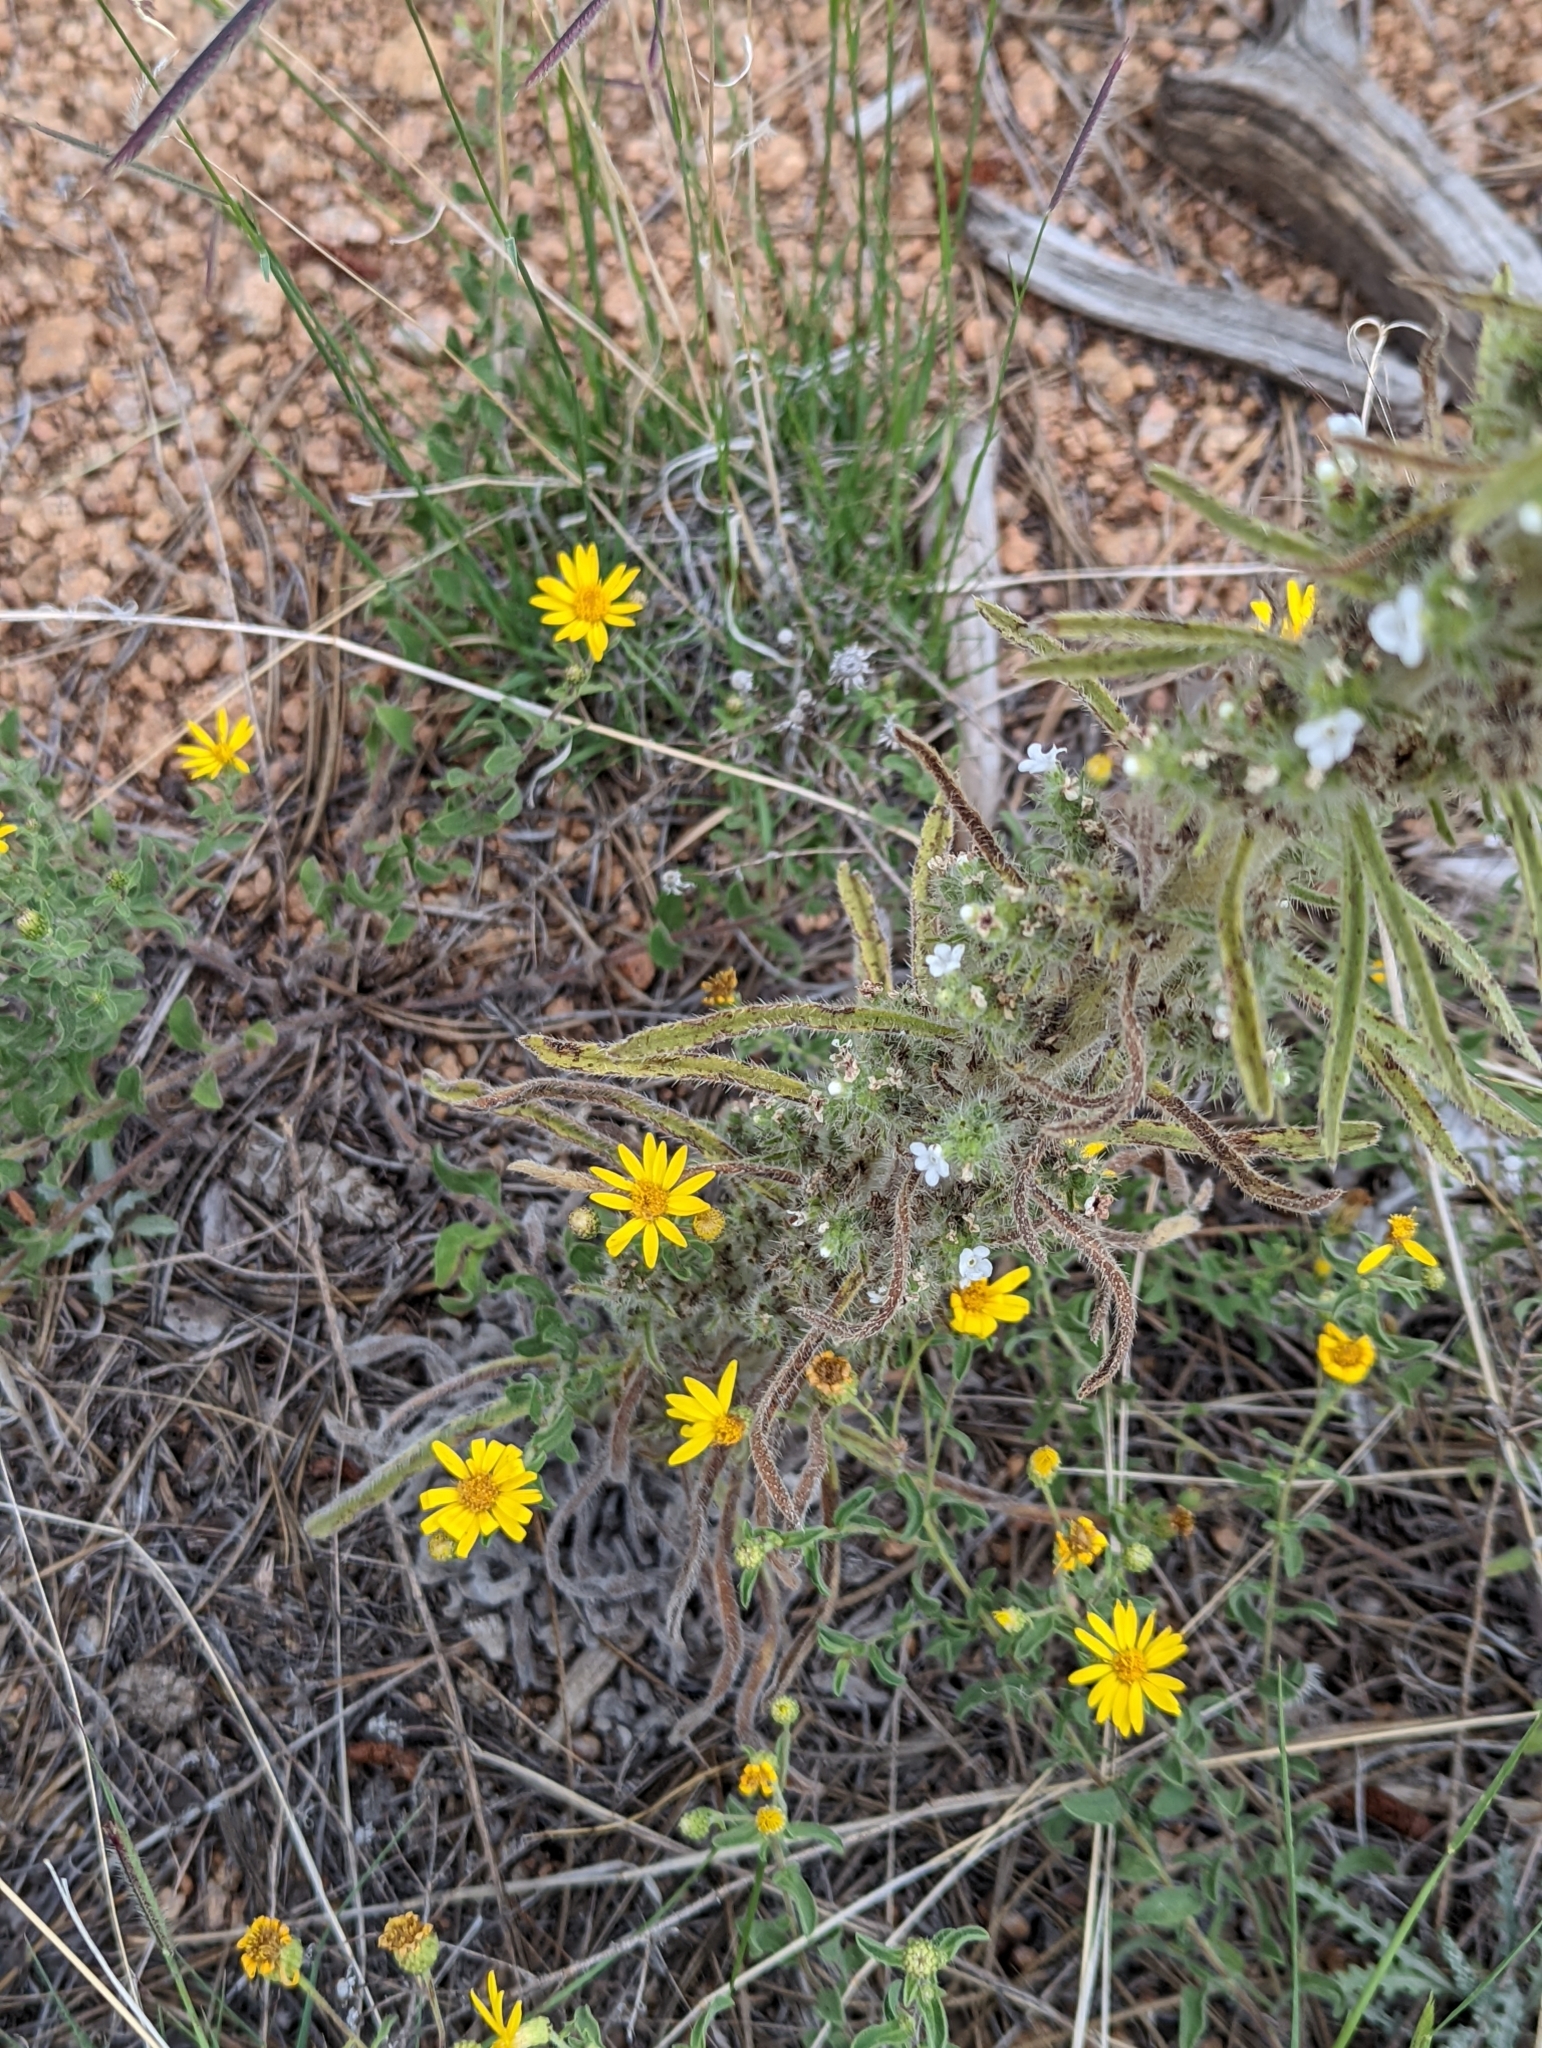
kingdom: Plantae
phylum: Tracheophyta
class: Magnoliopsida
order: Boraginales
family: Boraginaceae
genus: Oreocarya
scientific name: Oreocarya virgata
